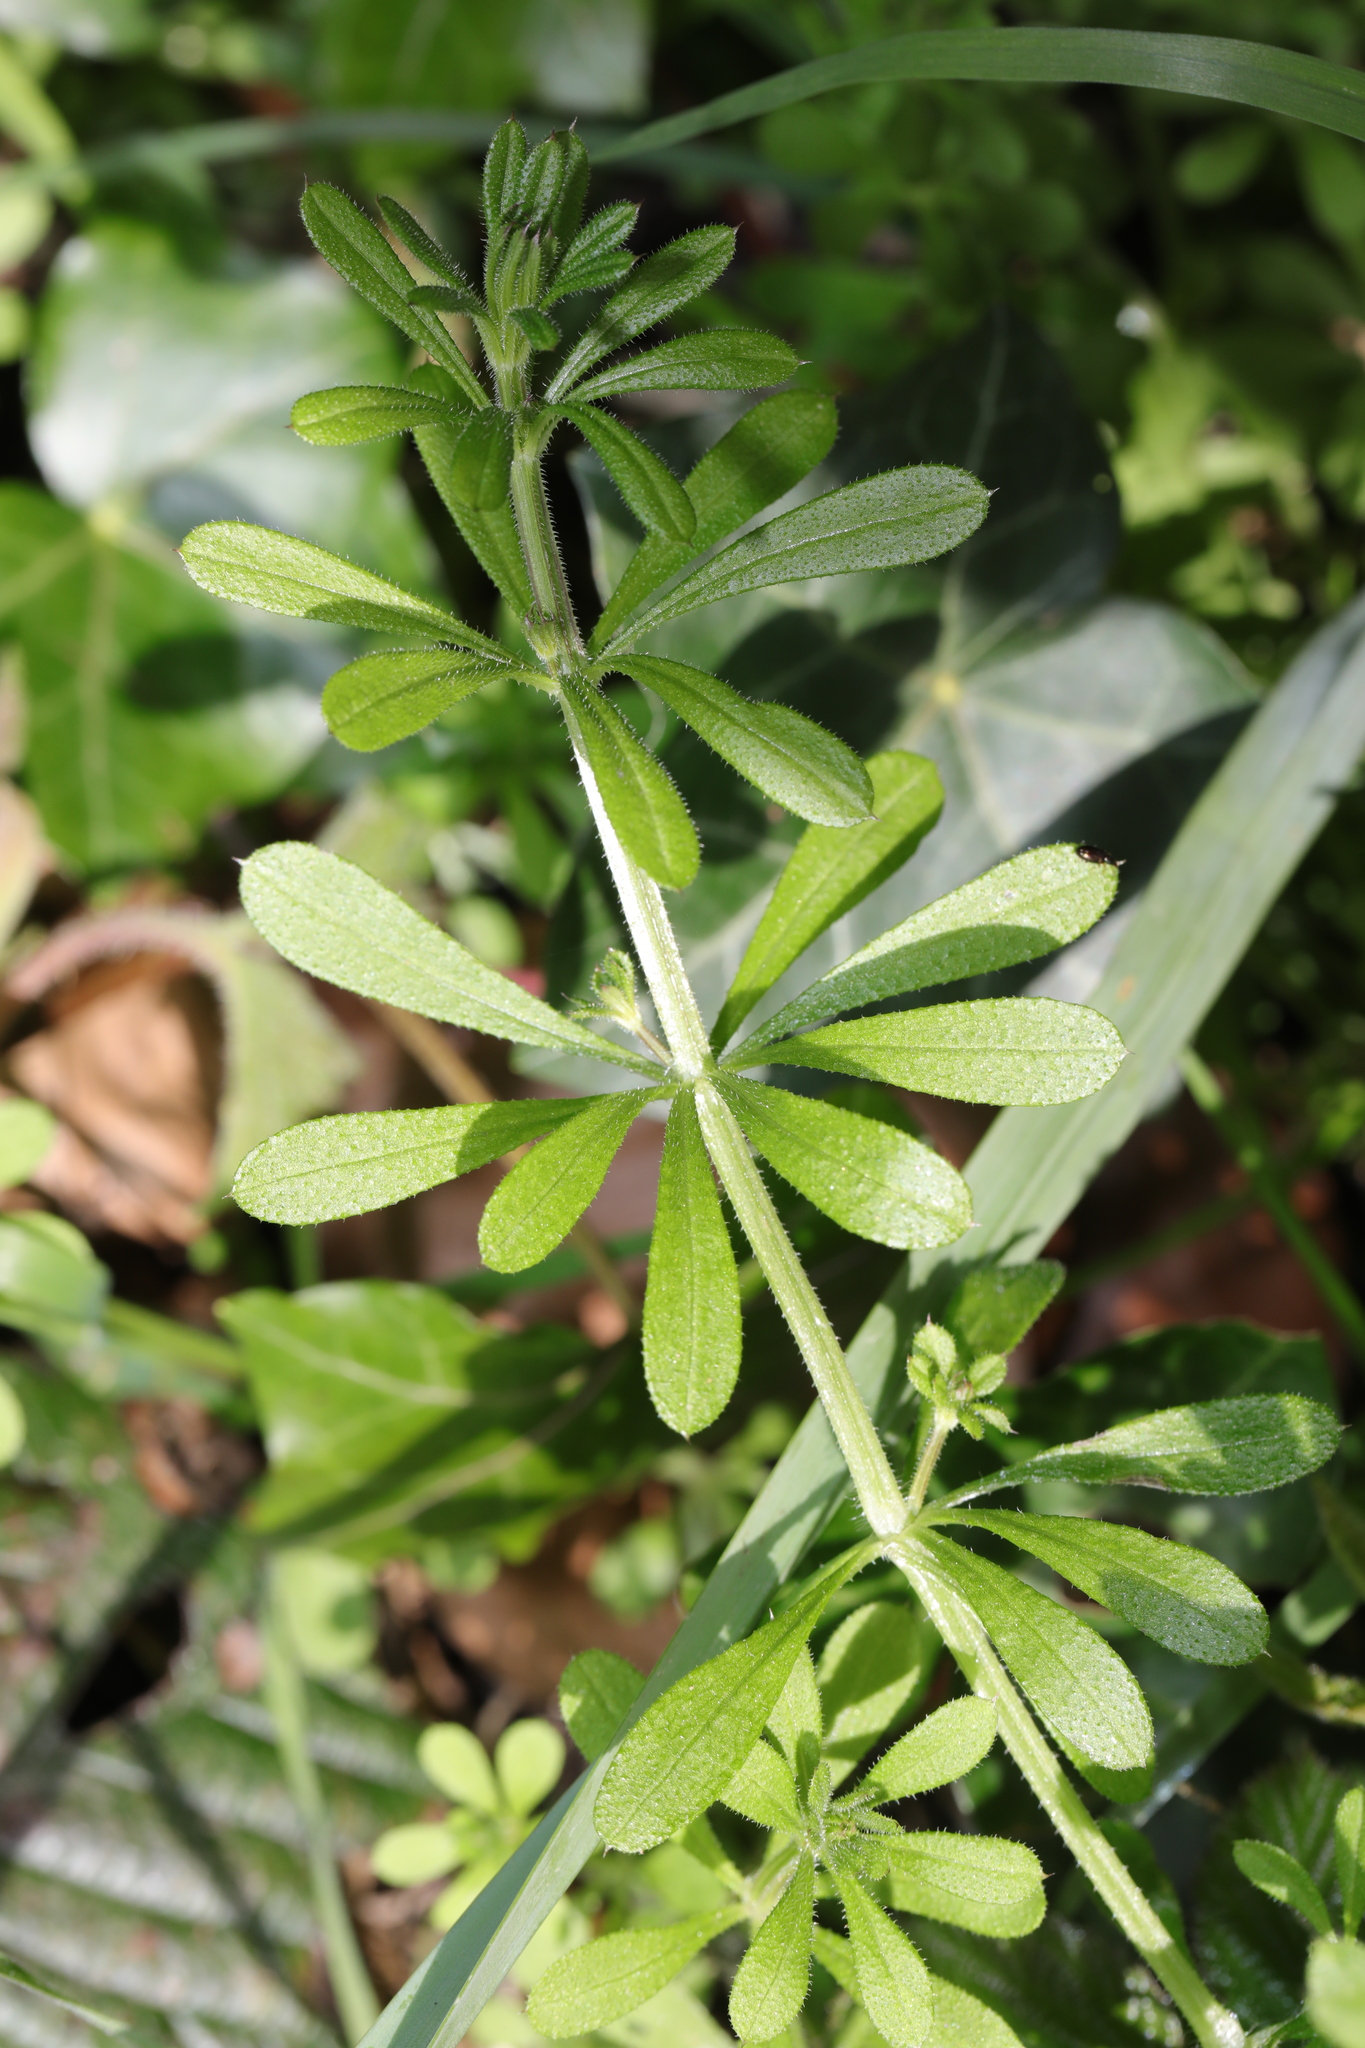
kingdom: Plantae
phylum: Tracheophyta
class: Magnoliopsida
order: Gentianales
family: Rubiaceae
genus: Galium
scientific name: Galium aparine
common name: Cleavers
